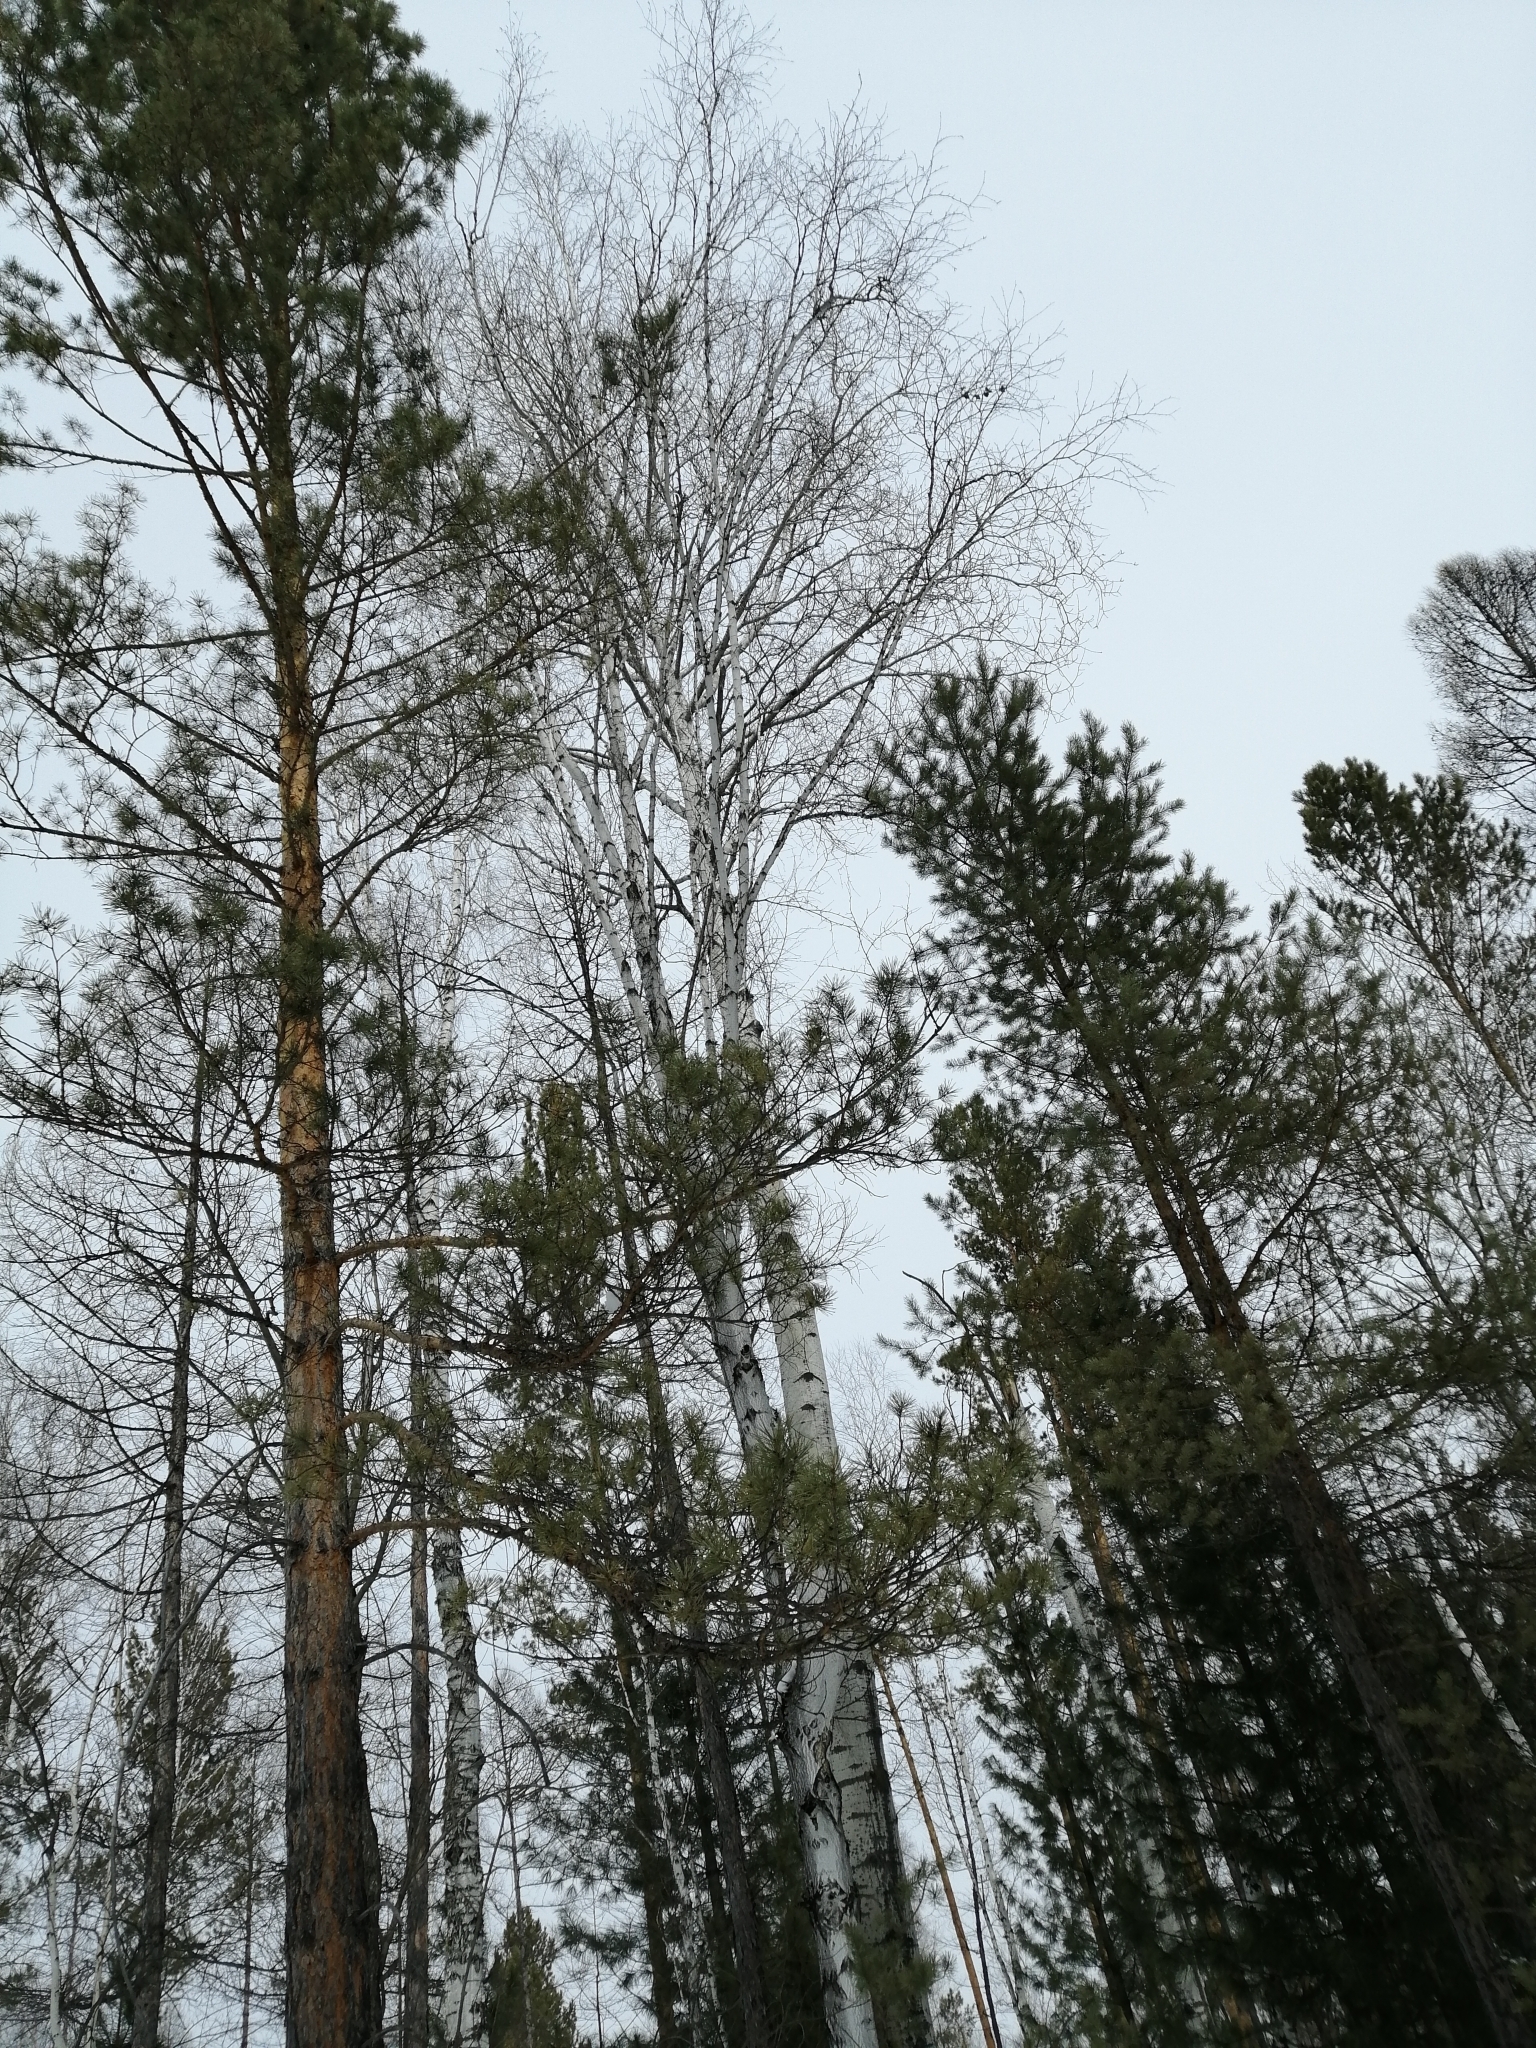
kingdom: Plantae
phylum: Tracheophyta
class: Pinopsida
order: Pinales
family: Pinaceae
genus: Larix
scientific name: Larix sibirica
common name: Siberian larch
